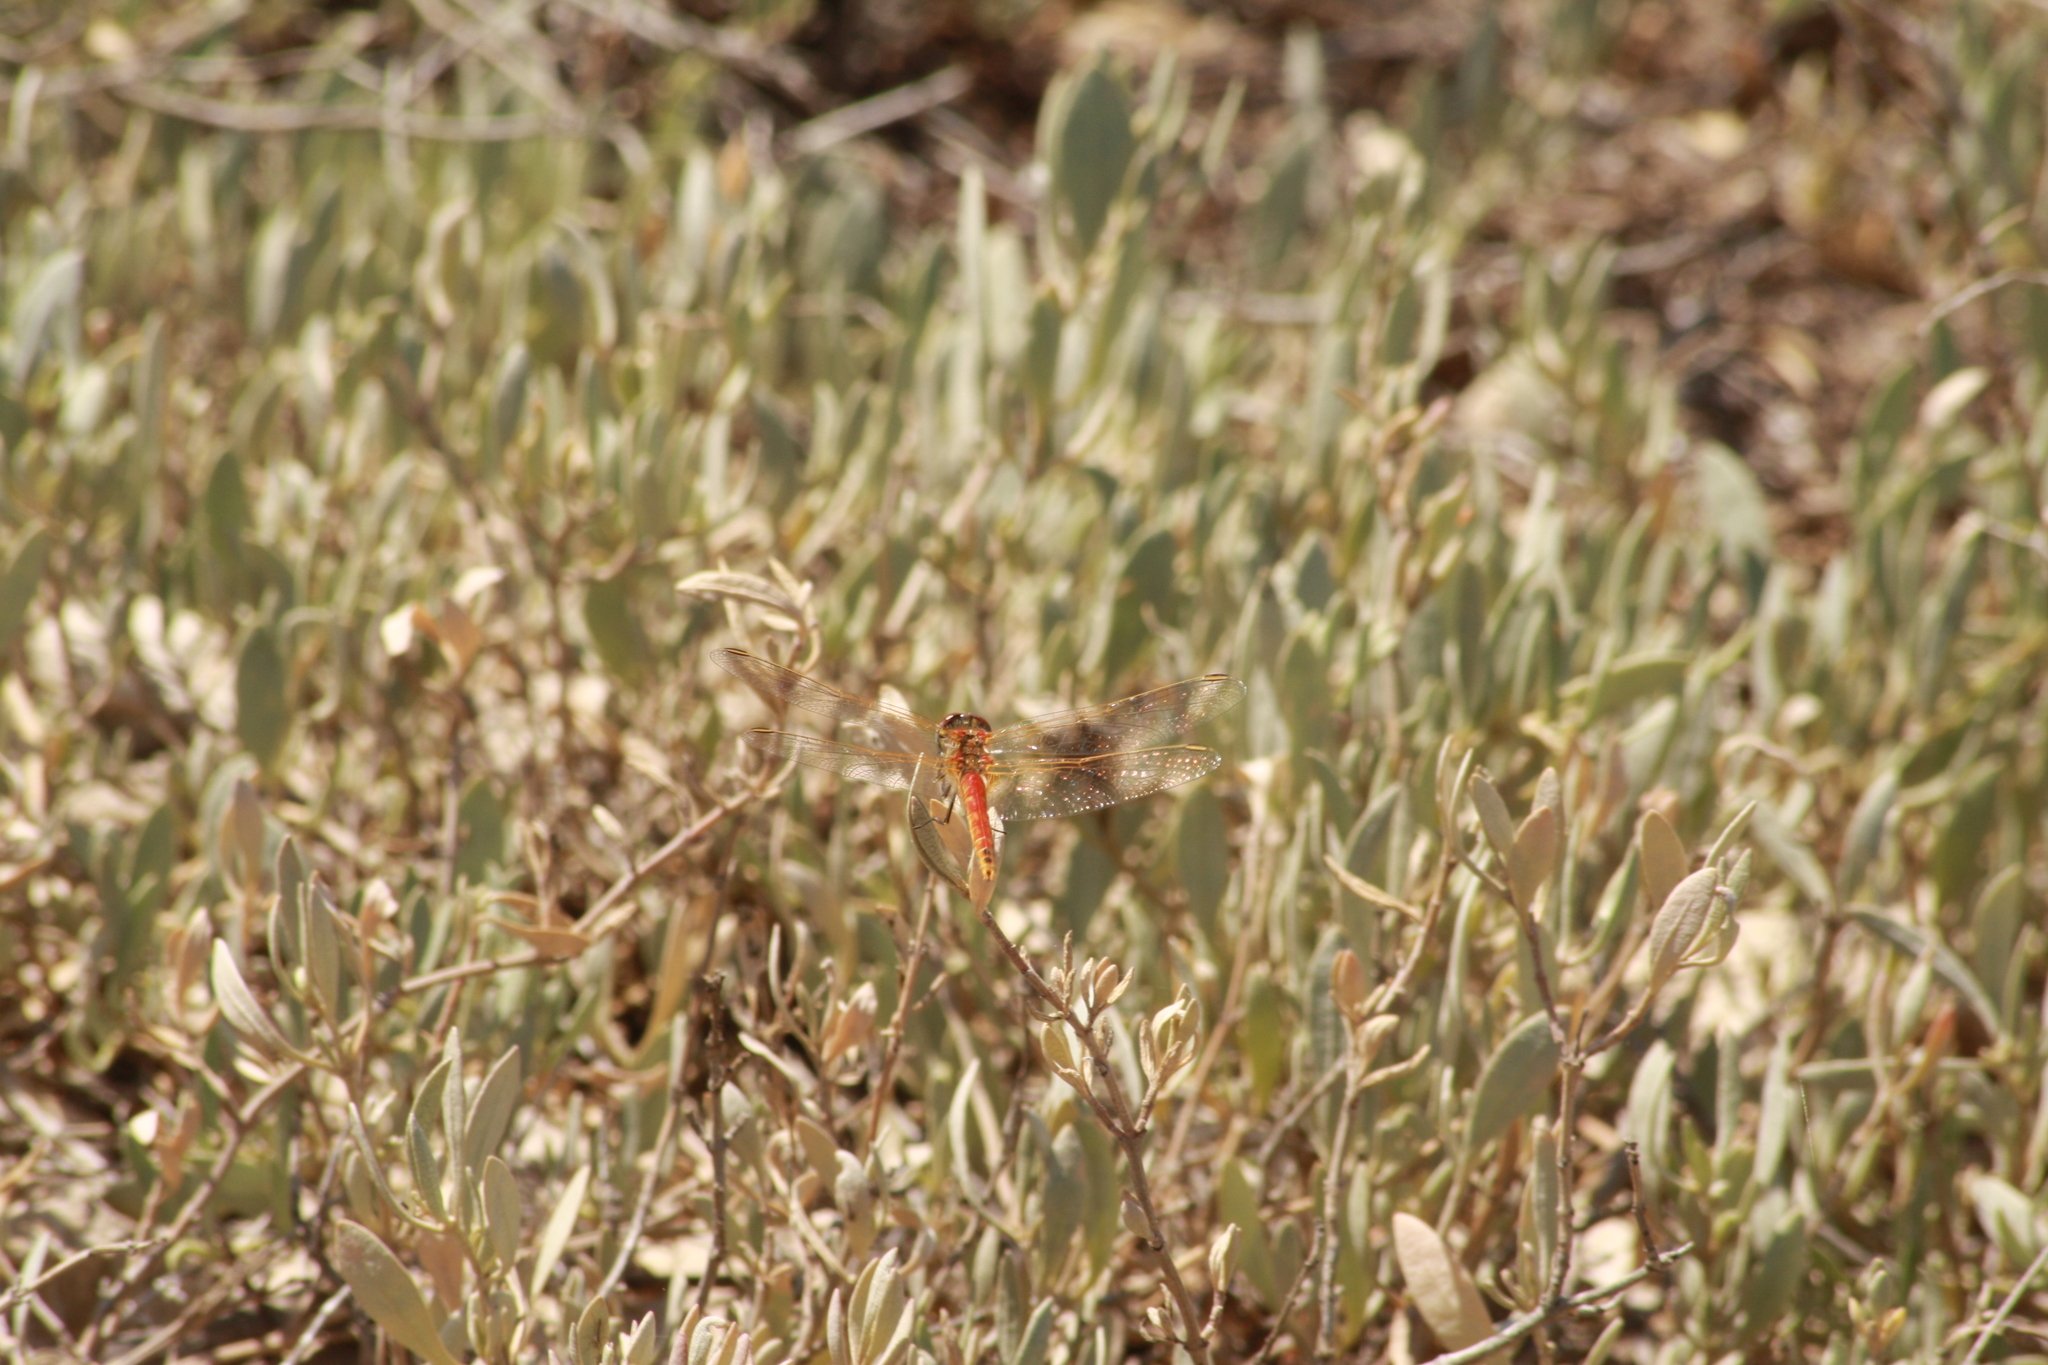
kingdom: Animalia
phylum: Arthropoda
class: Insecta
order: Odonata
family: Libellulidae
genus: Sympetrum
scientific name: Sympetrum fonscolombii
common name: Red-veined darter
